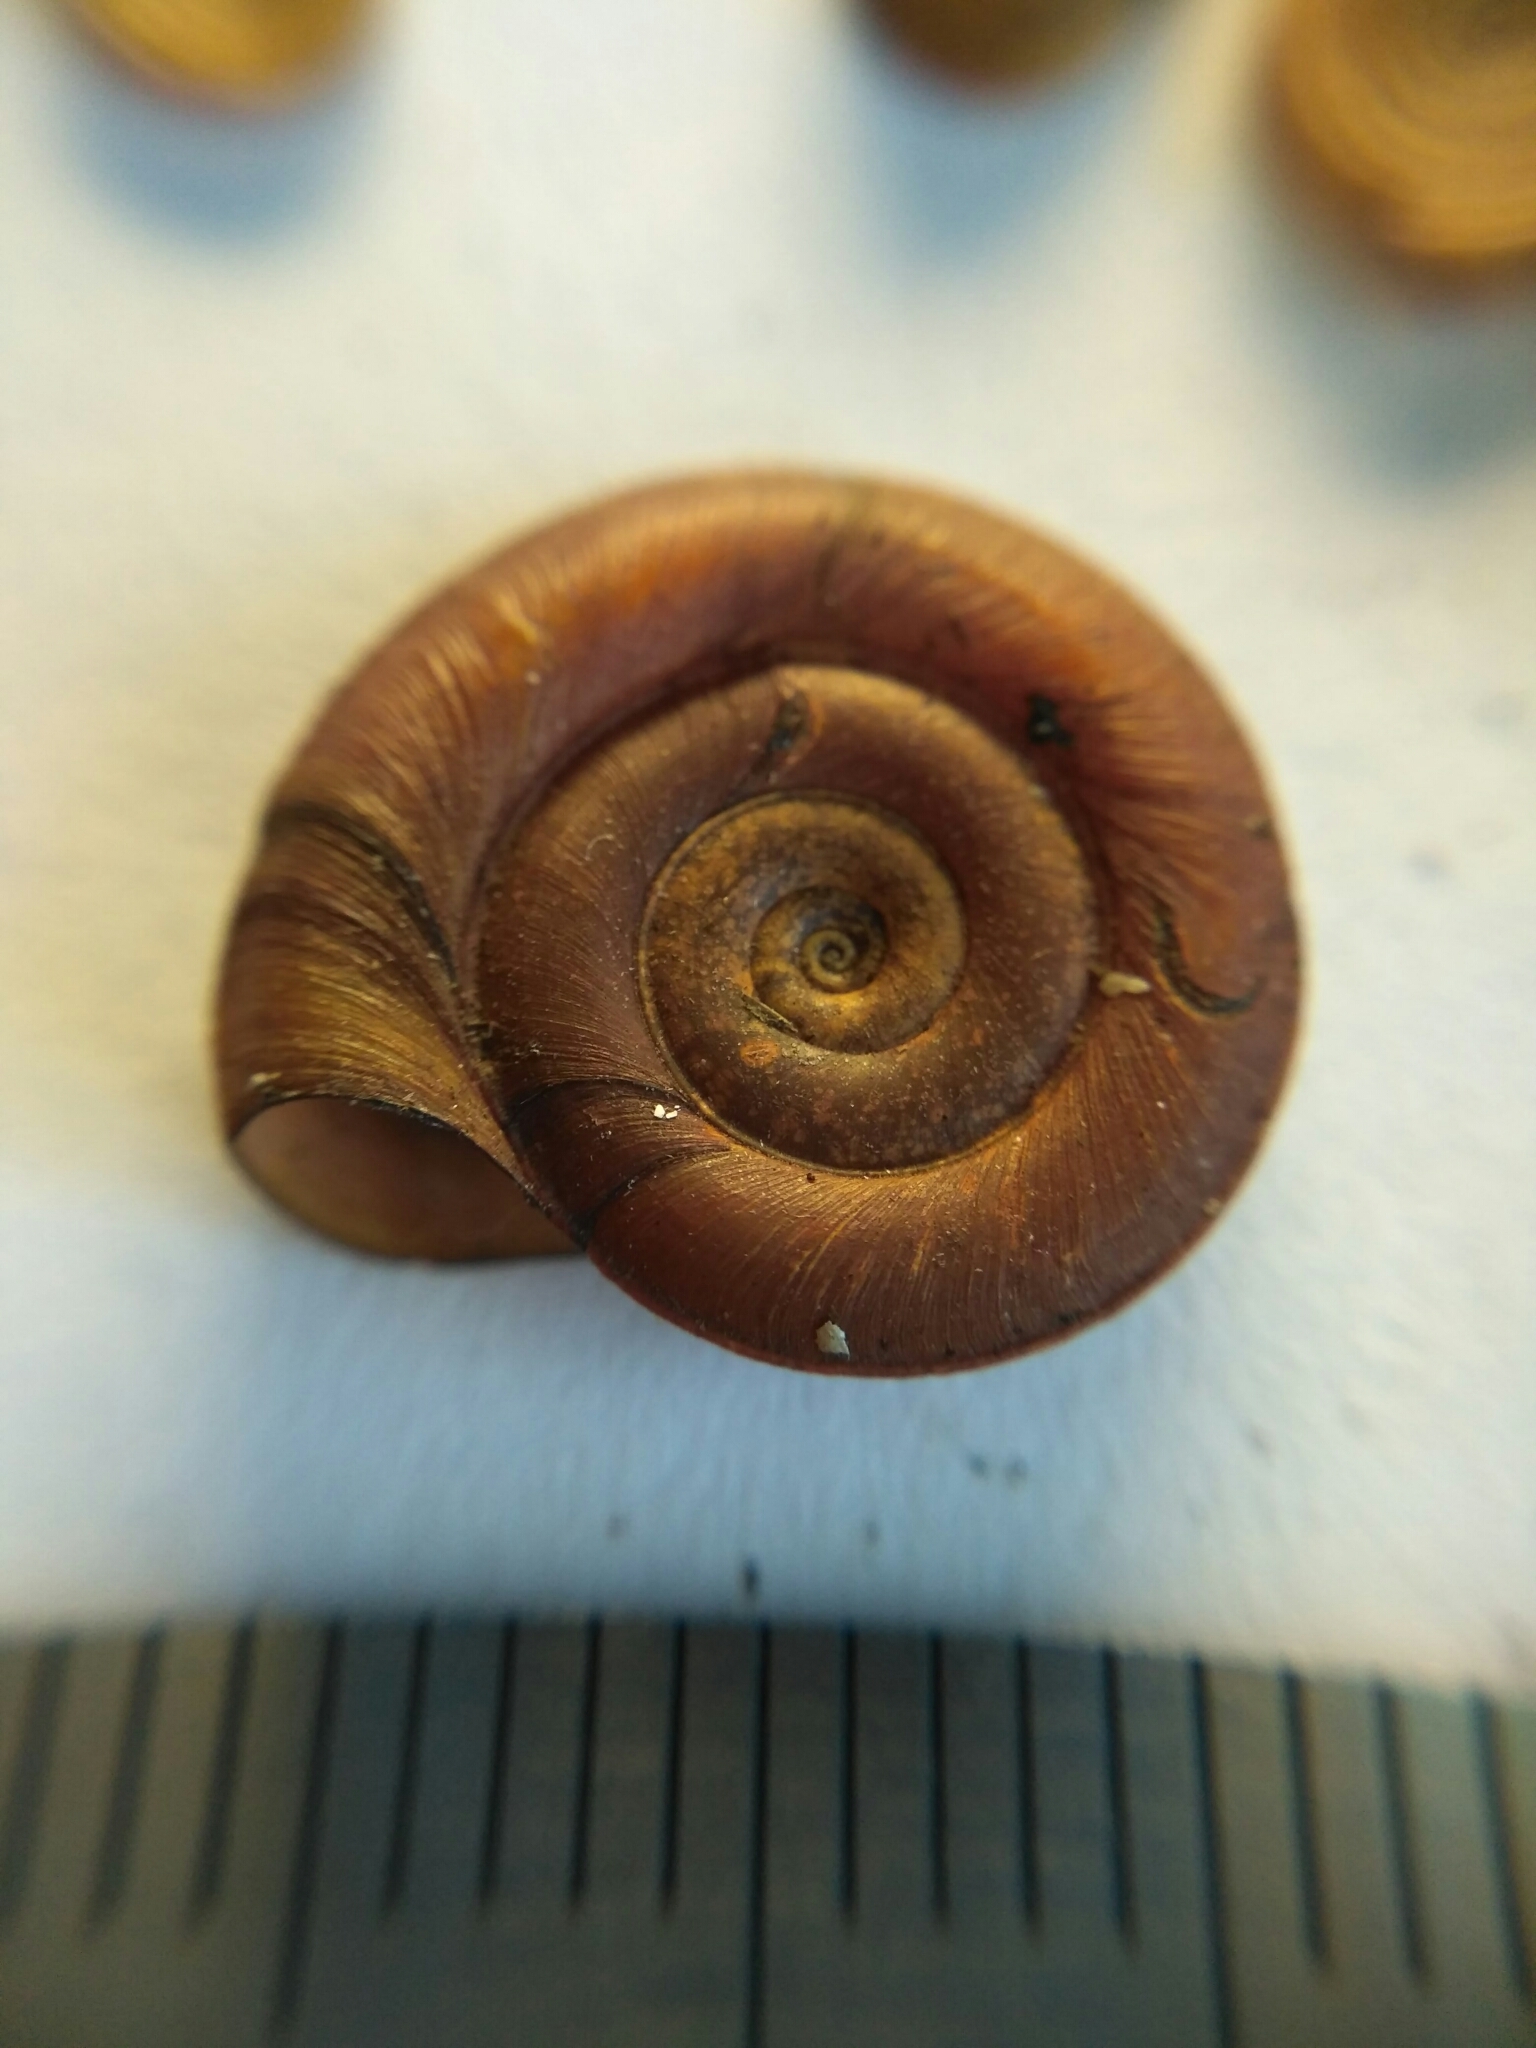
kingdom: Animalia
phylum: Mollusca
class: Gastropoda
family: Planorbidae
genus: Planorbis
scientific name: Planorbis planorbis
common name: Margined ramshorn
